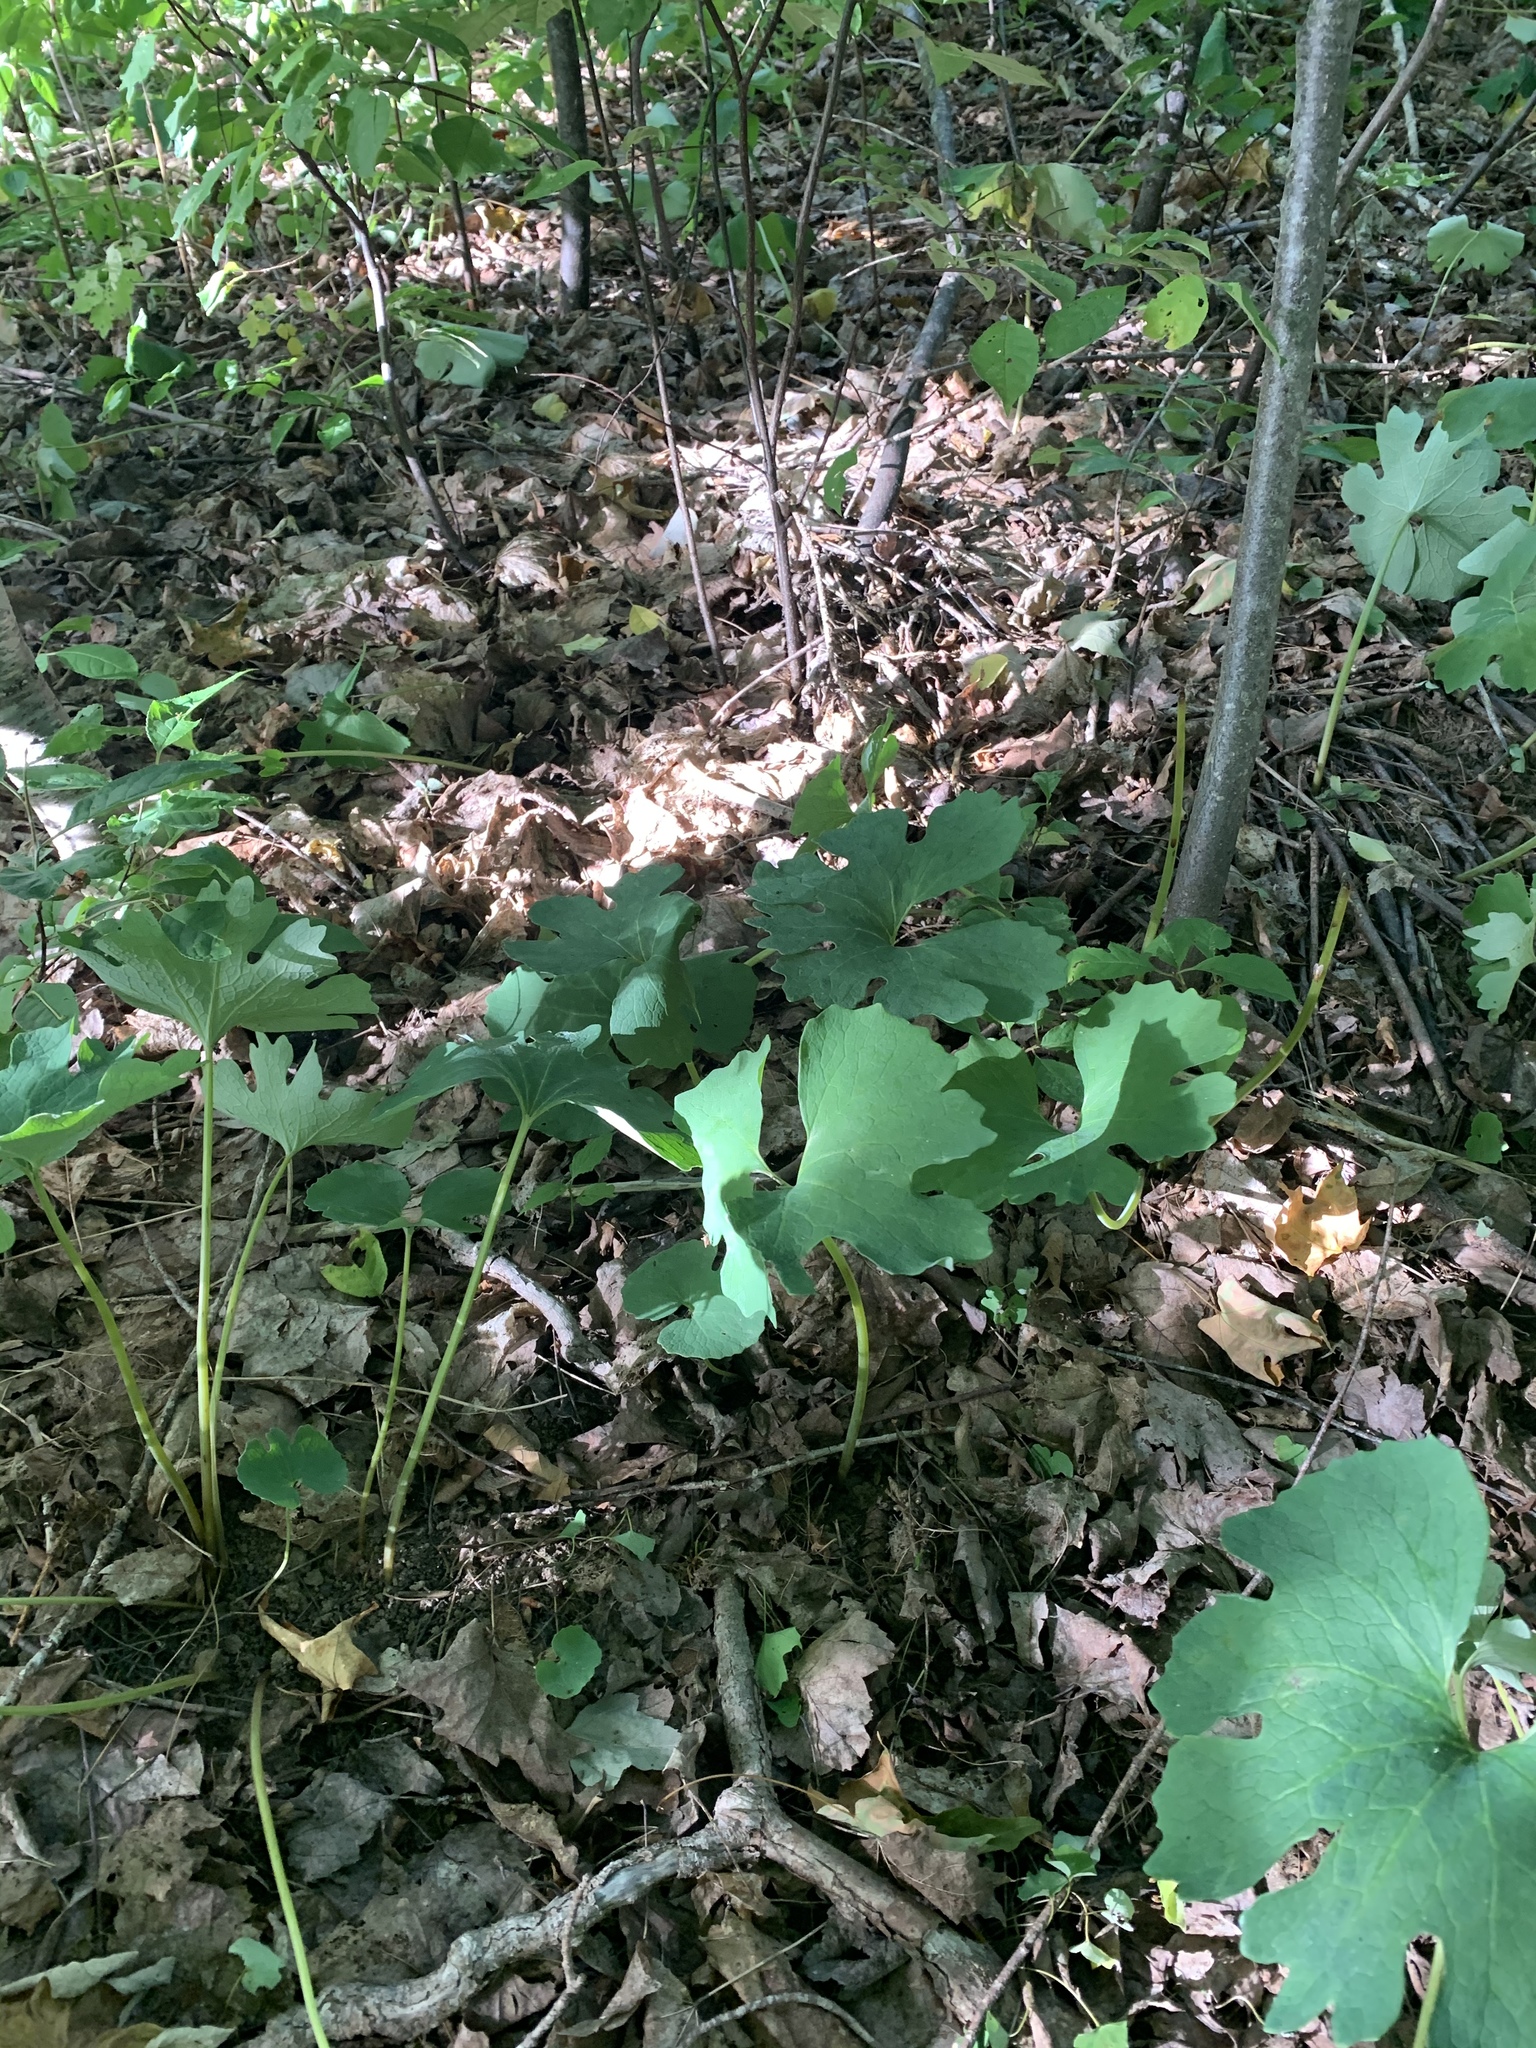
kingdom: Plantae
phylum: Tracheophyta
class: Magnoliopsida
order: Ranunculales
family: Papaveraceae
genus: Sanguinaria
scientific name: Sanguinaria canadensis
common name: Bloodroot
